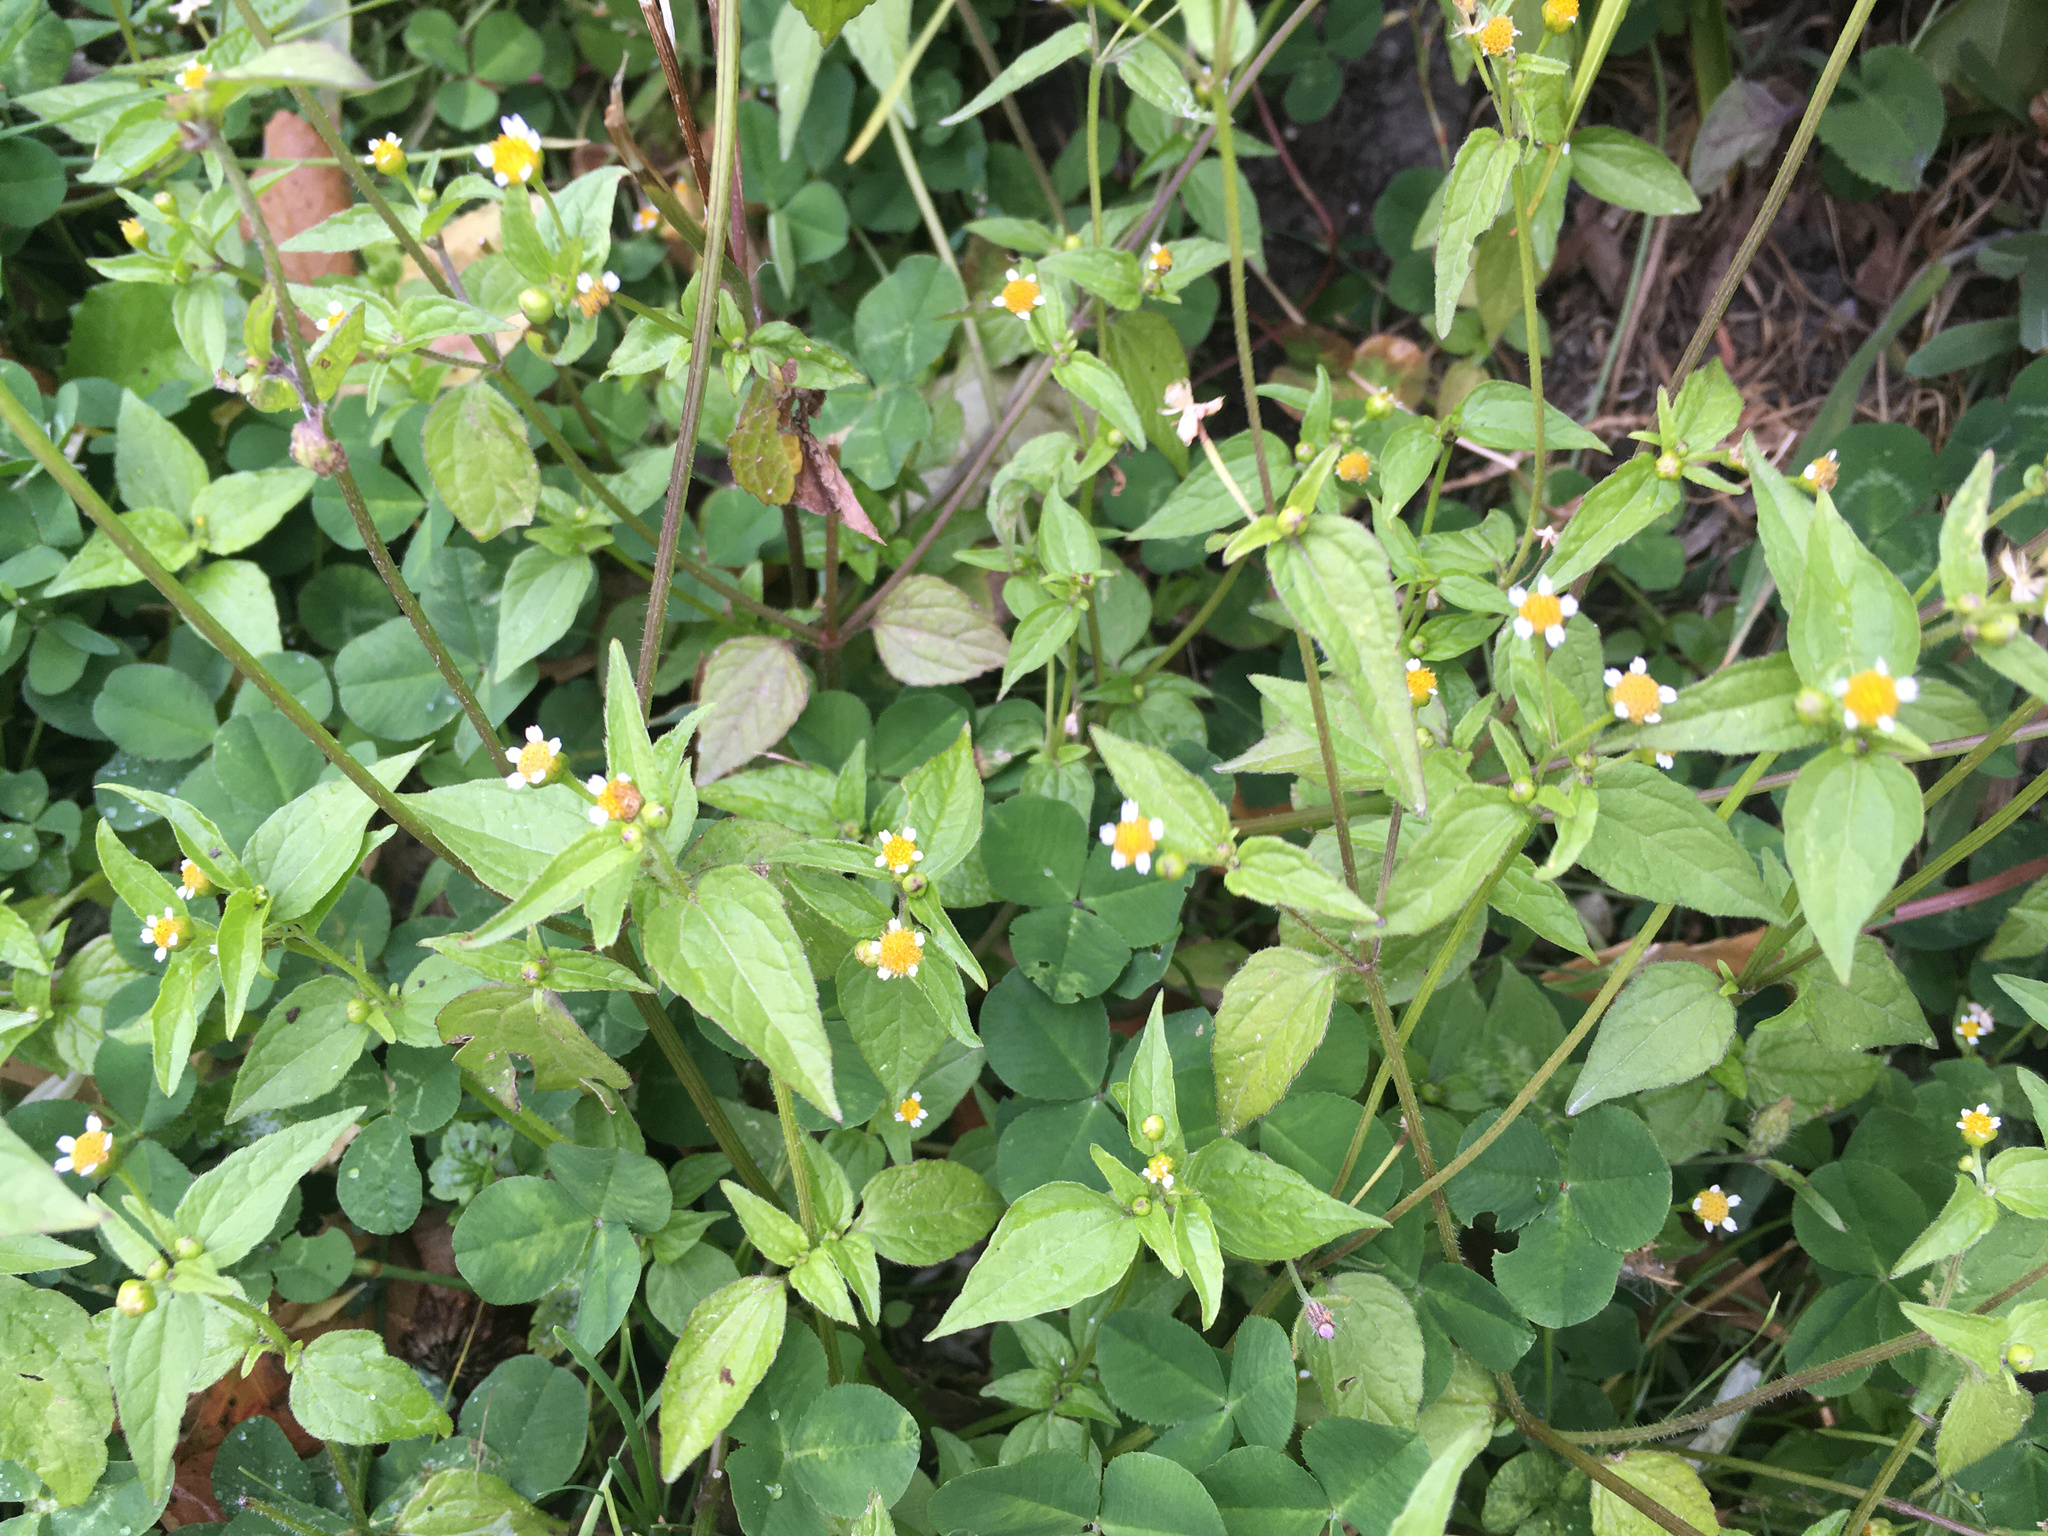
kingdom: Plantae
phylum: Tracheophyta
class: Magnoliopsida
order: Asterales
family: Asteraceae
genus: Galinsoga
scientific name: Galinsoga parviflora
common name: Gallant soldier
